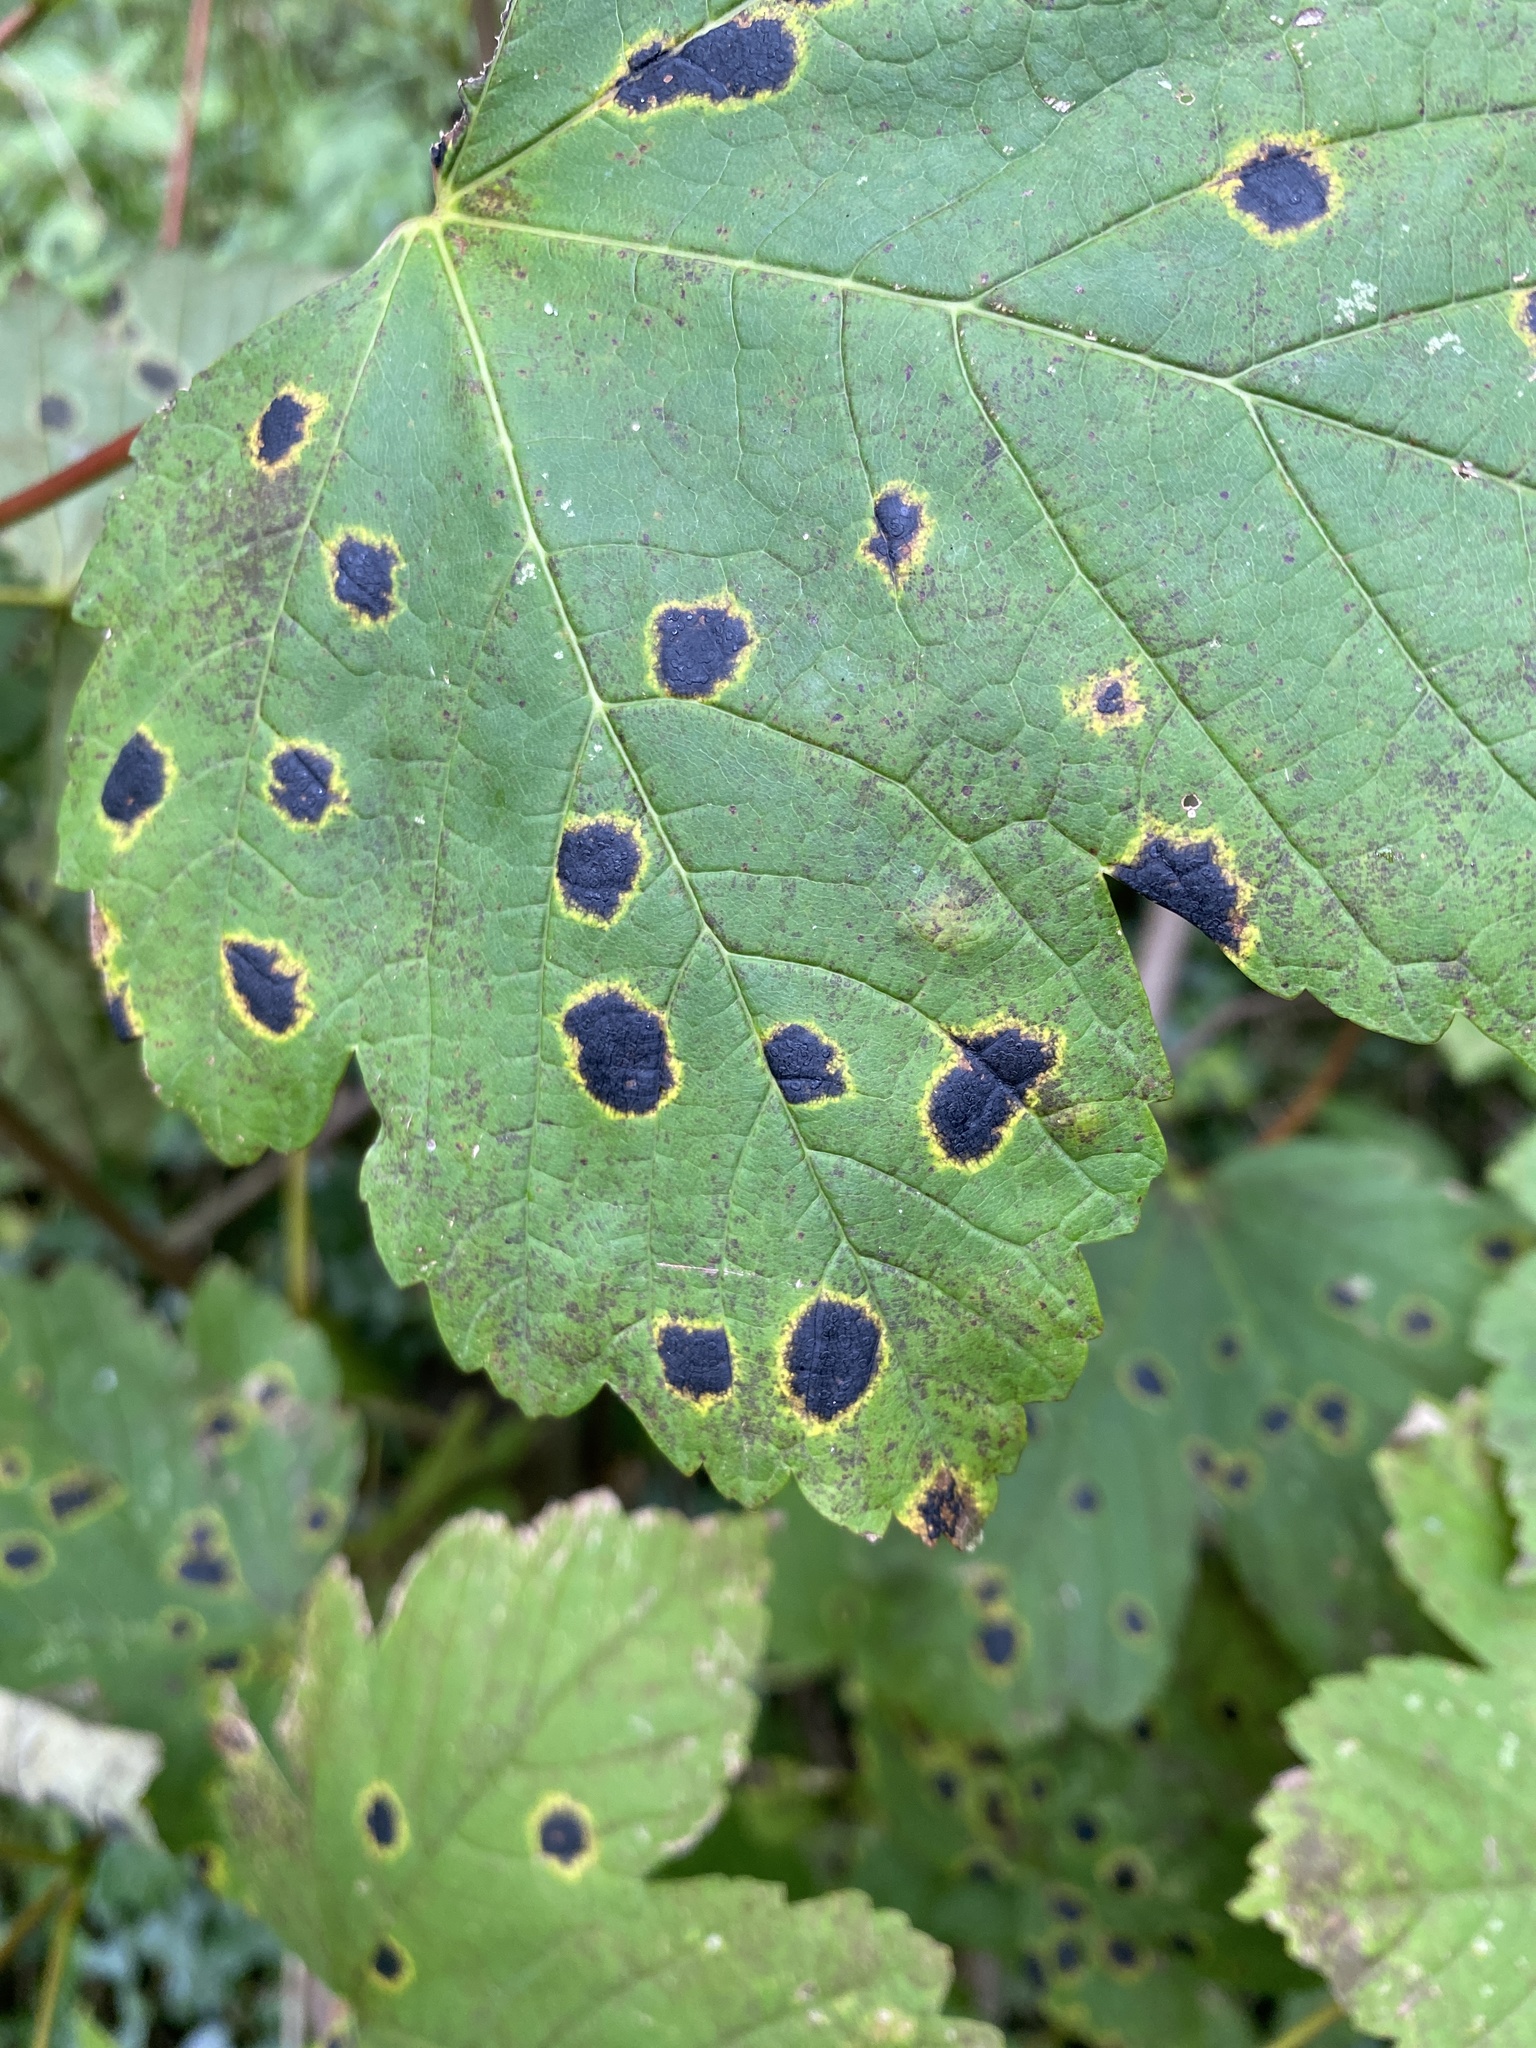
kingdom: Fungi
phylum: Ascomycota
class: Leotiomycetes
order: Rhytismatales
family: Rhytismataceae
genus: Rhytisma
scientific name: Rhytisma acerinum
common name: European tar spot
